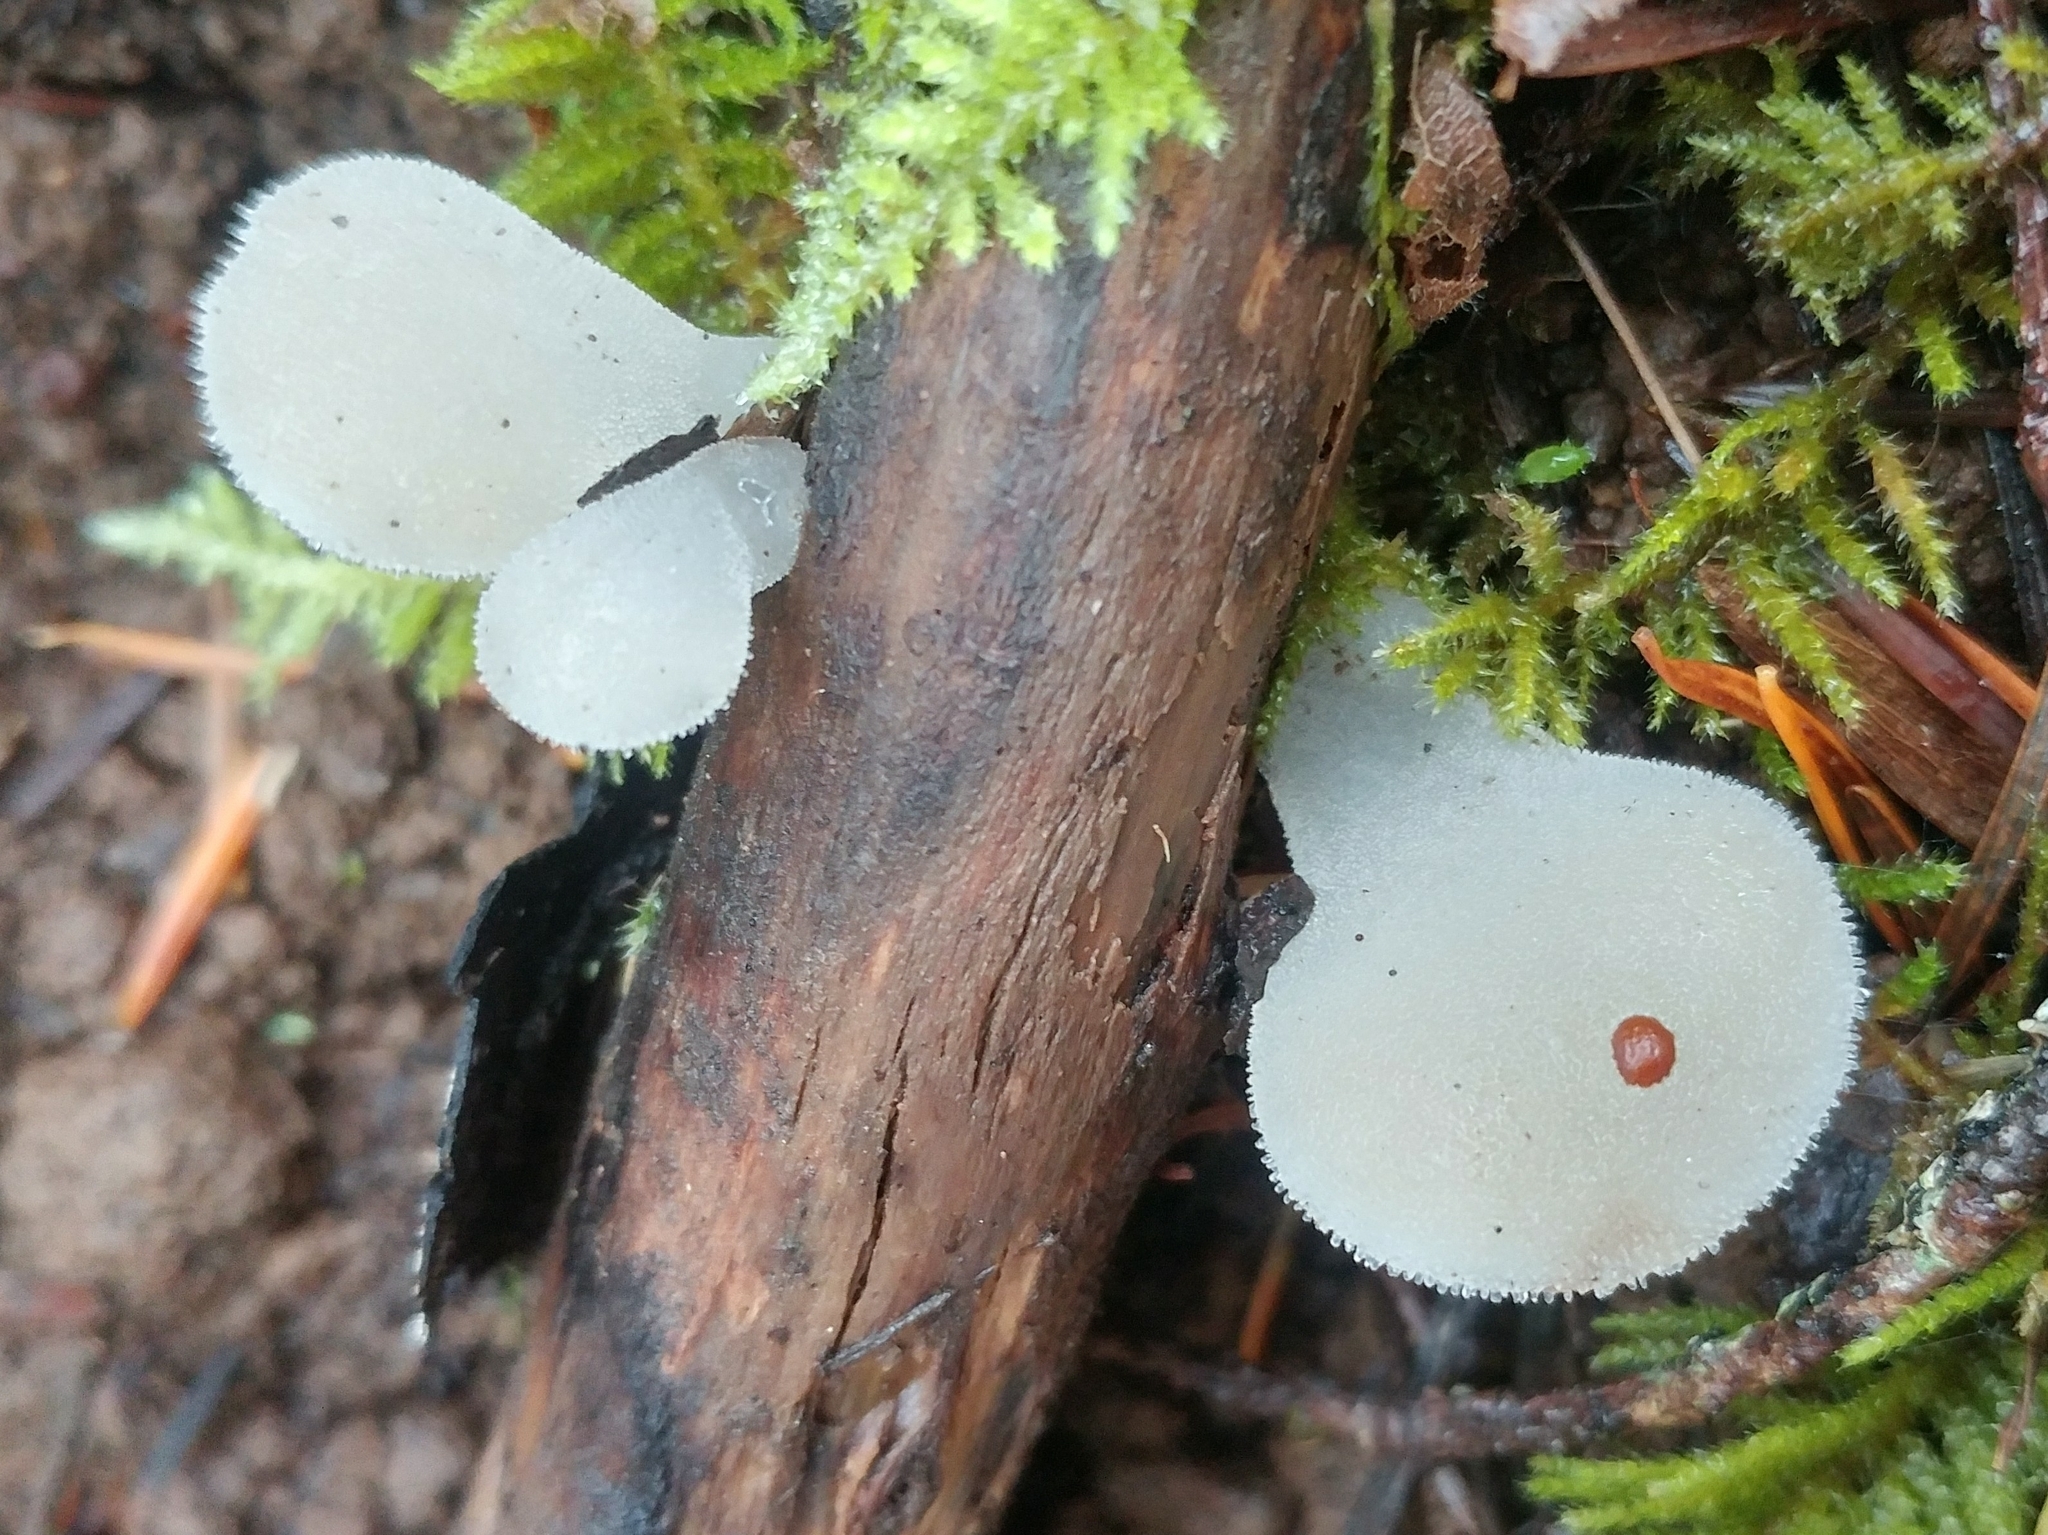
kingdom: Fungi
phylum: Basidiomycota
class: Agaricomycetes
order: Auriculariales
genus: Pseudohydnum
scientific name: Pseudohydnum gelatinosum
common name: Jelly tongue
